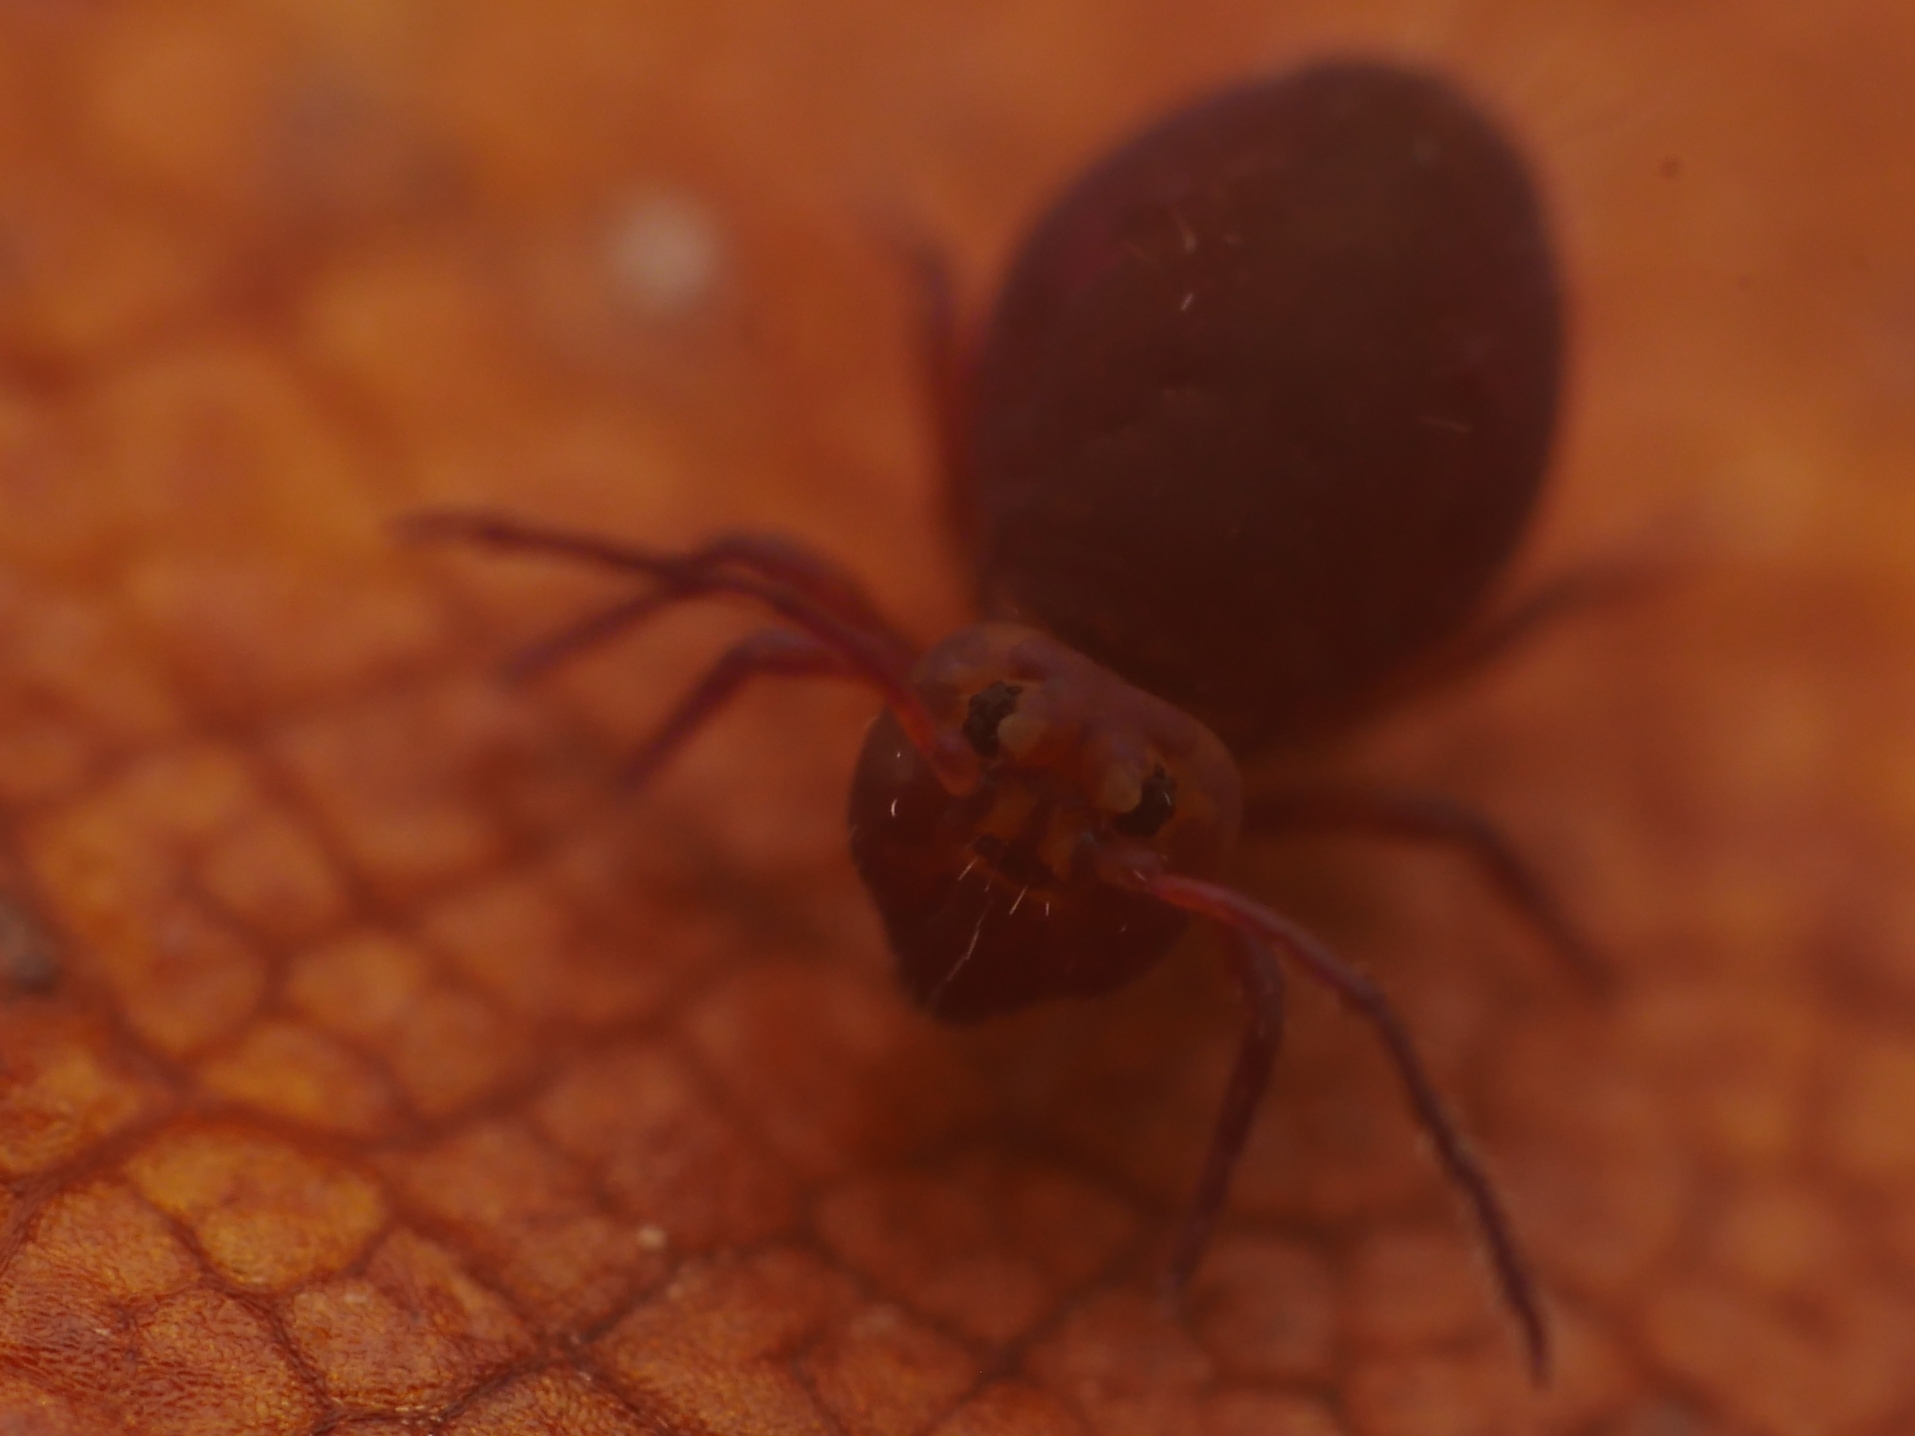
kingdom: Animalia
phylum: Arthropoda
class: Collembola
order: Symphypleona
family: Dicyrtomidae
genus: Dicyrtoma
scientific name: Dicyrtoma fusca
